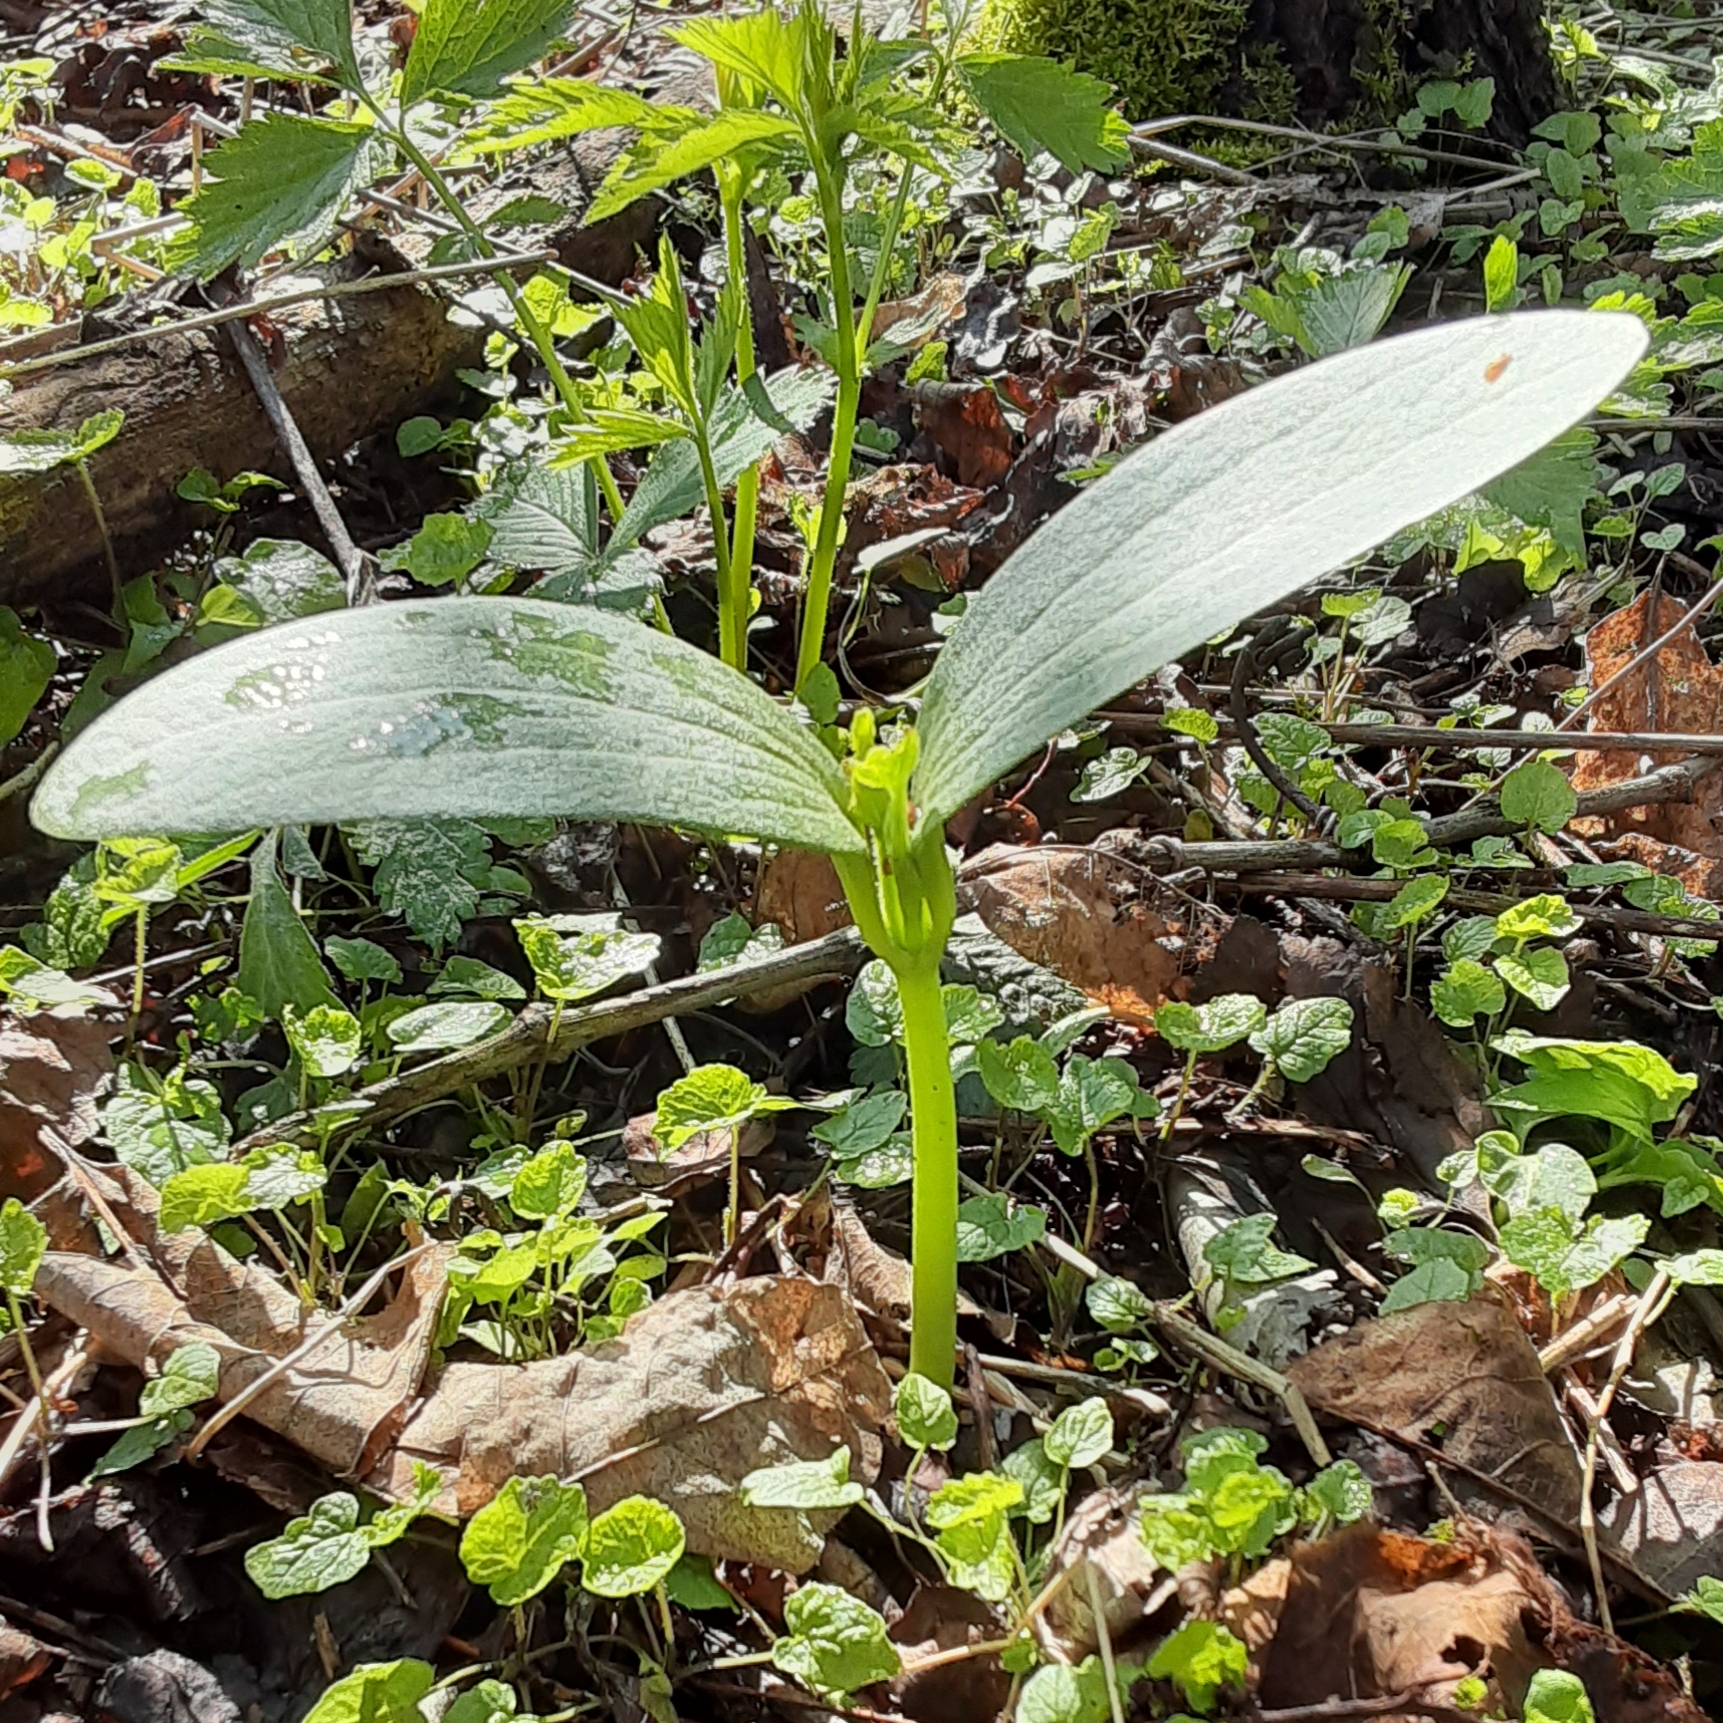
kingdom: Plantae
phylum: Tracheophyta
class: Magnoliopsida
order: Cucurbitales
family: Cucurbitaceae
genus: Echinocystis
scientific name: Echinocystis lobata
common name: Wild cucumber
